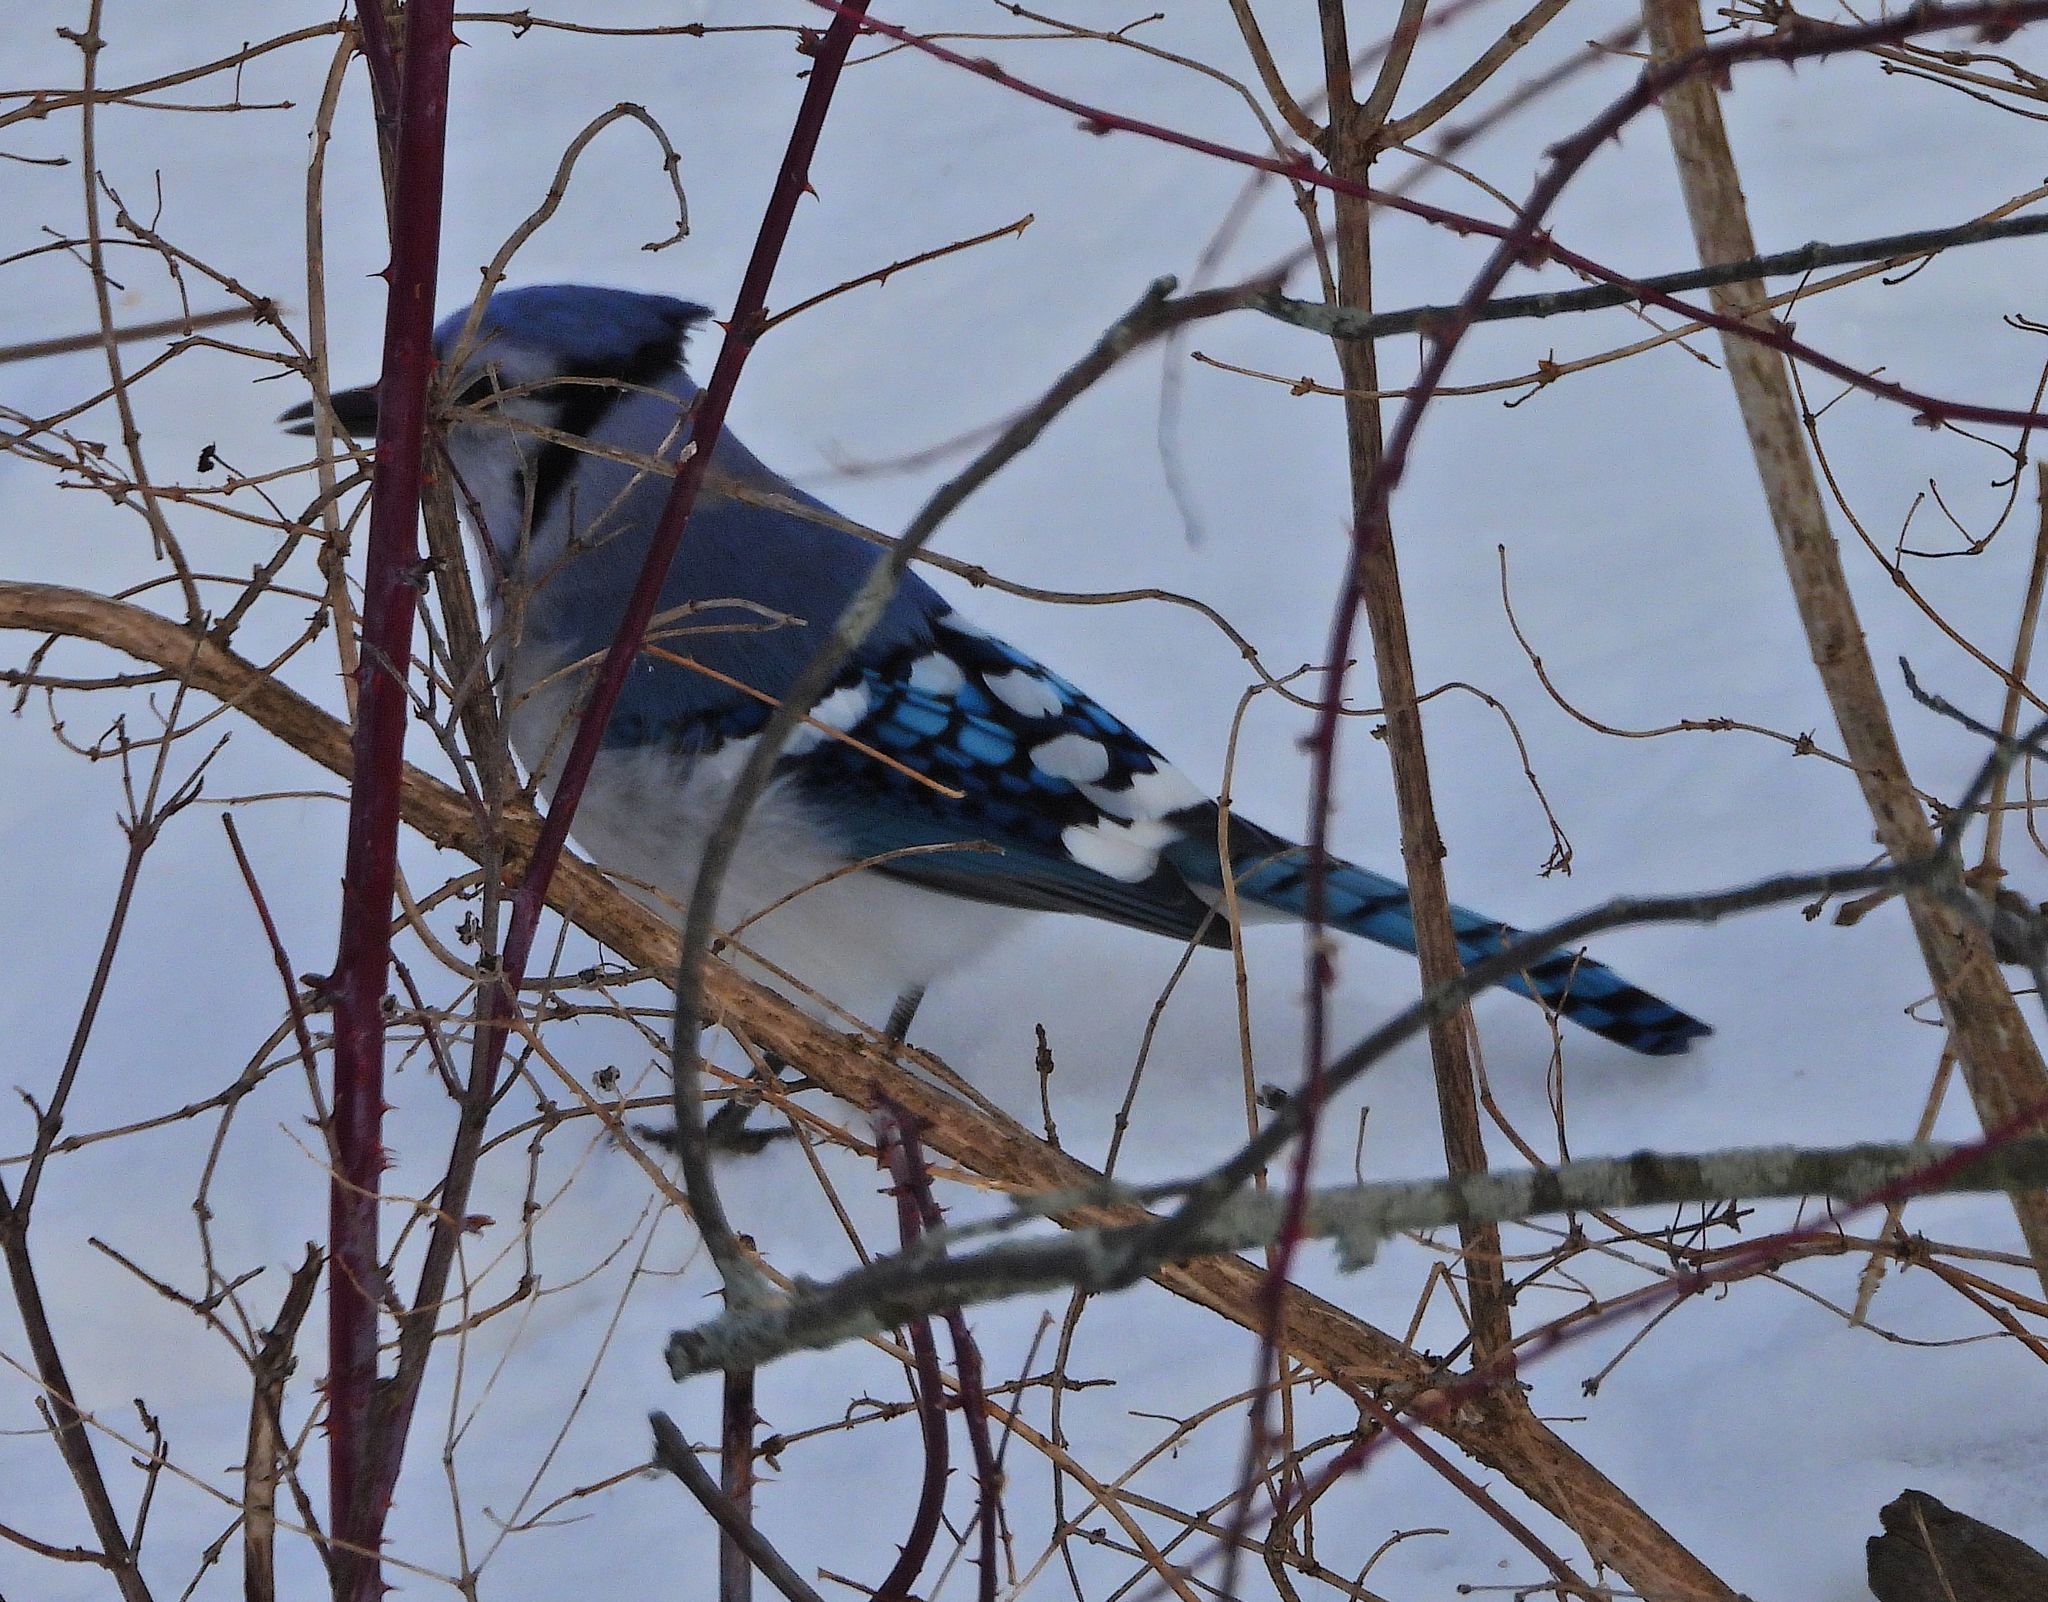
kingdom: Animalia
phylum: Chordata
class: Aves
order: Passeriformes
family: Corvidae
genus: Cyanocitta
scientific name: Cyanocitta cristata
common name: Blue jay
